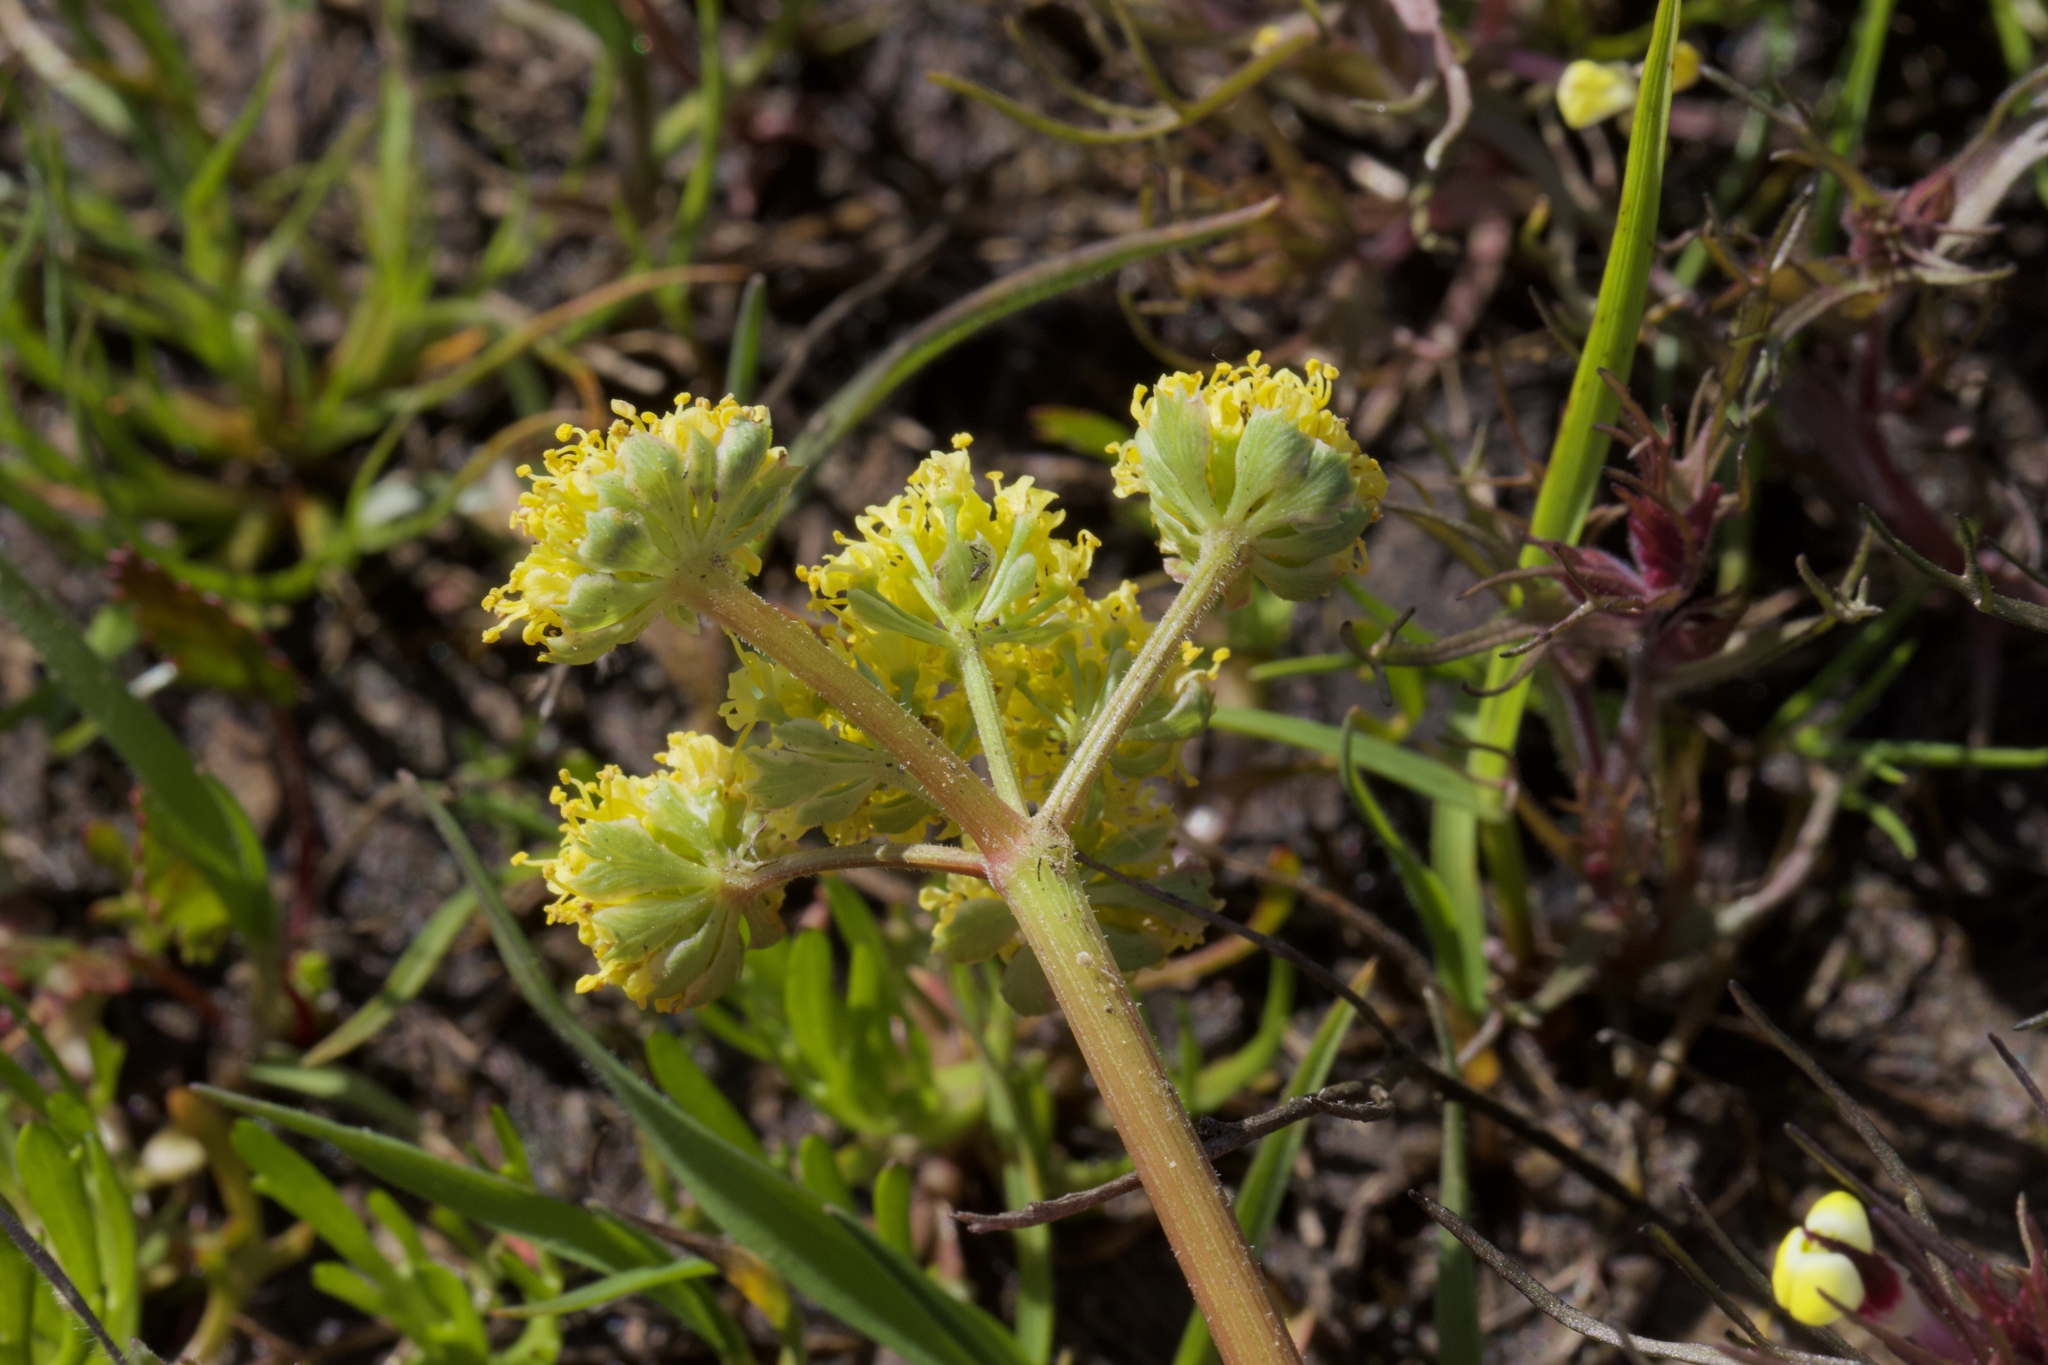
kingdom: Plantae
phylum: Tracheophyta
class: Magnoliopsida
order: Apiales
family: Apiaceae
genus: Lomatium
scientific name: Lomatium caruifolium
